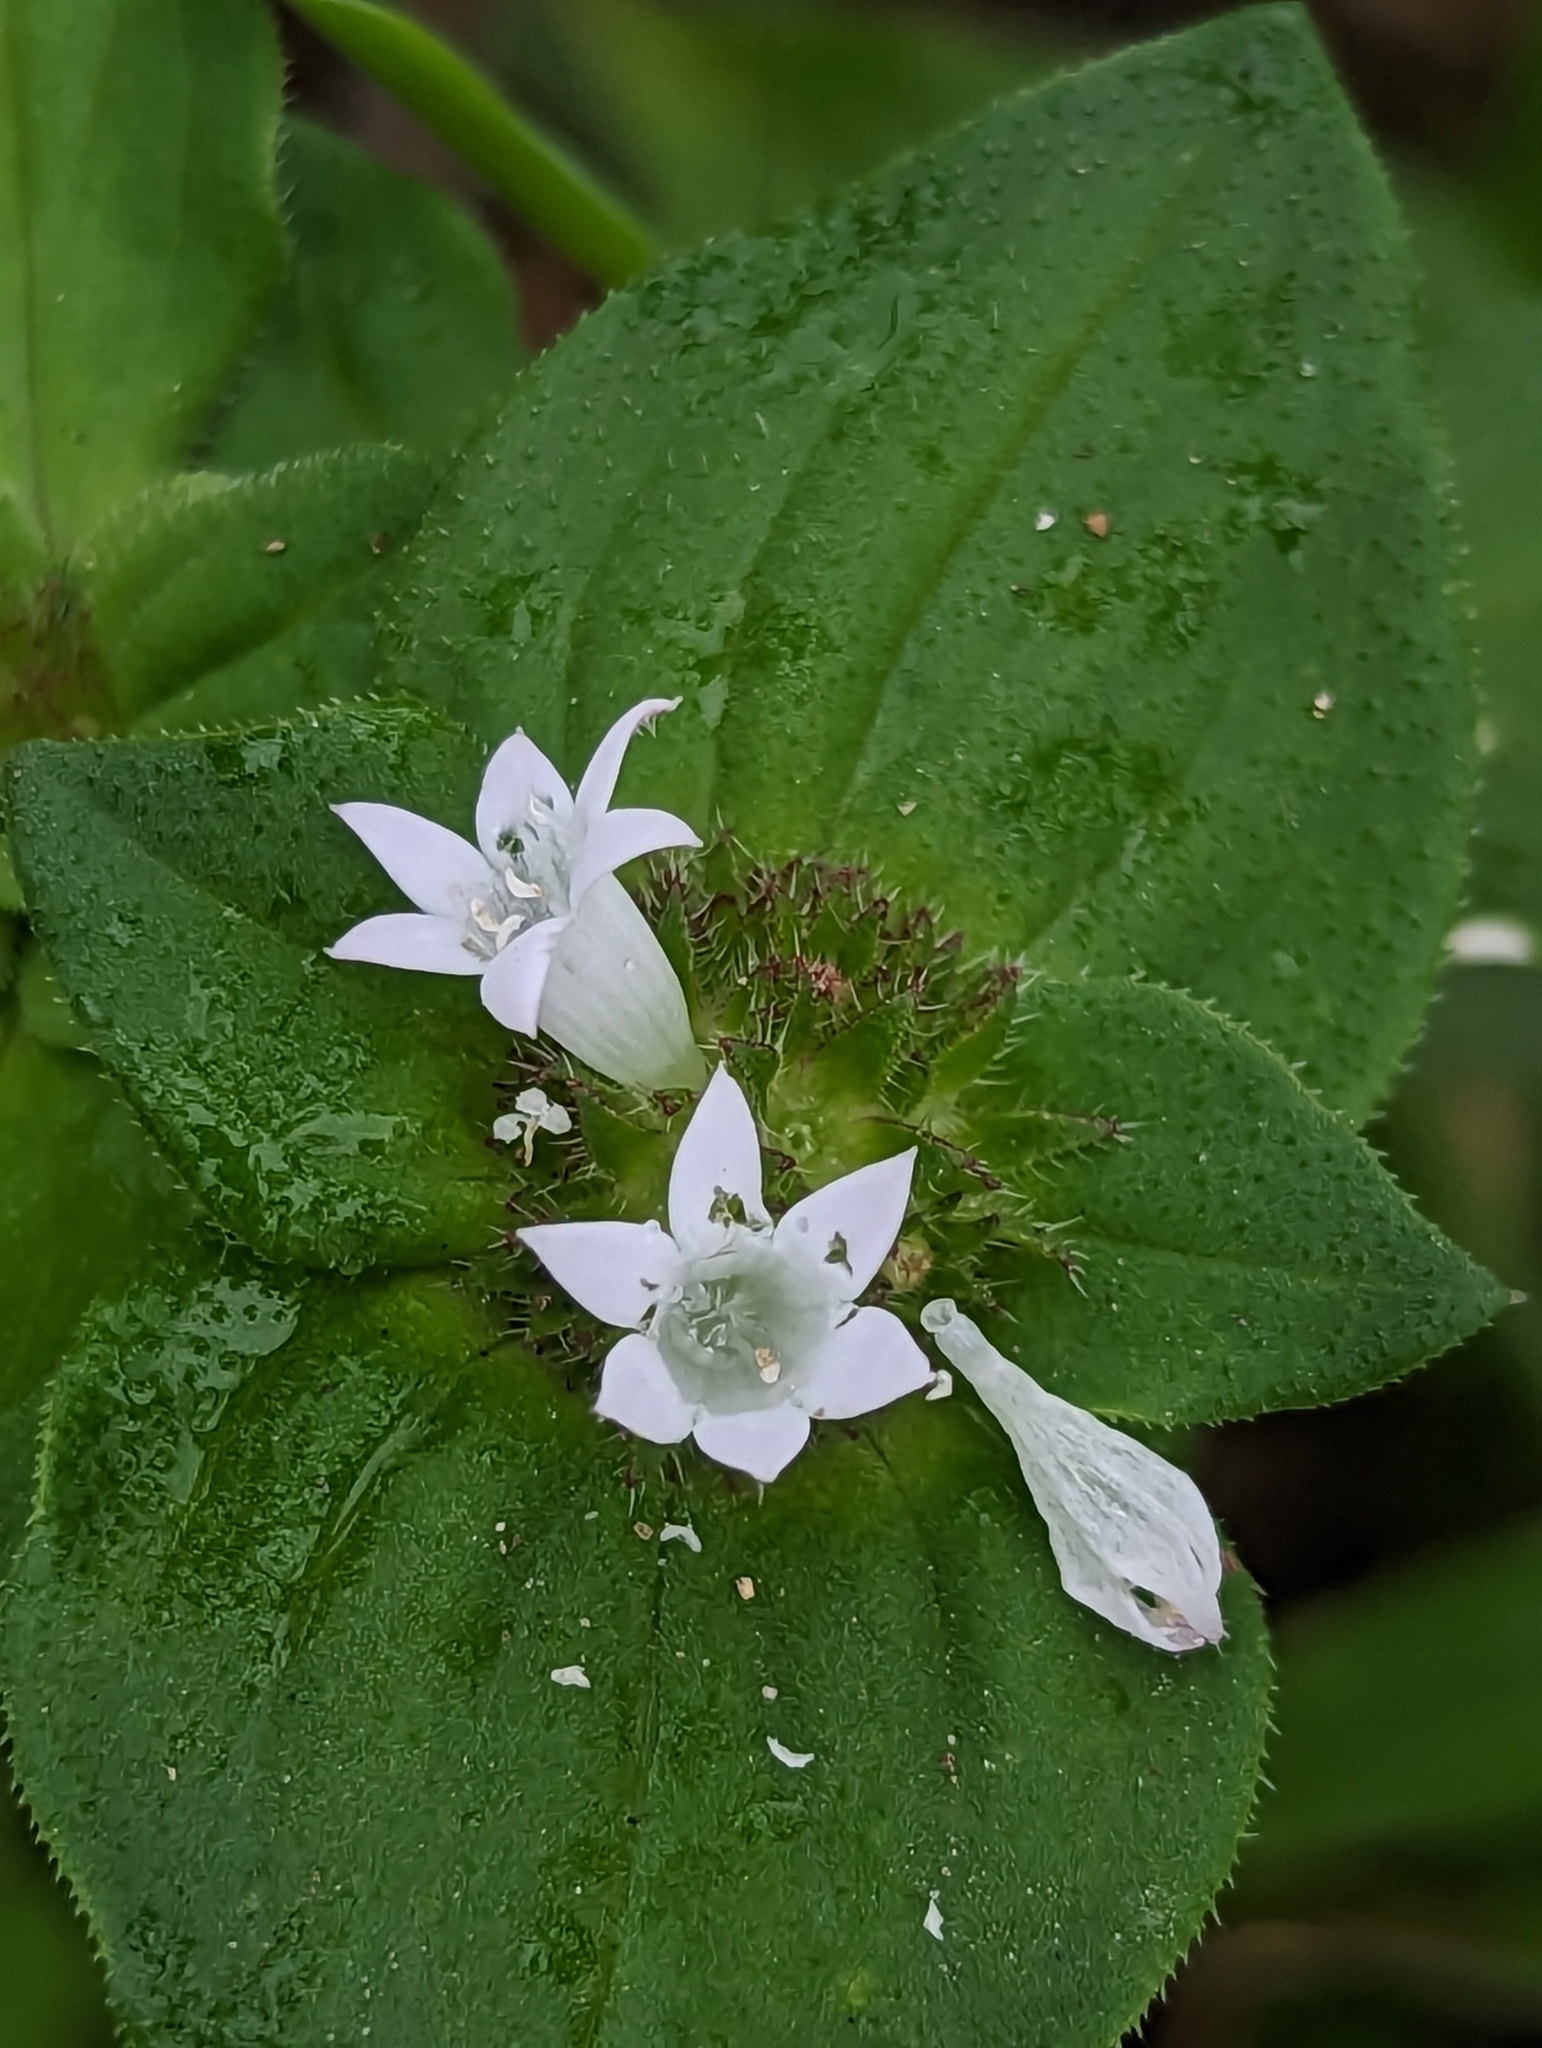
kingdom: Plantae
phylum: Tracheophyta
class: Magnoliopsida
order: Gentianales
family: Rubiaceae
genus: Richardia
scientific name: Richardia scabra
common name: Rough mexican clover
